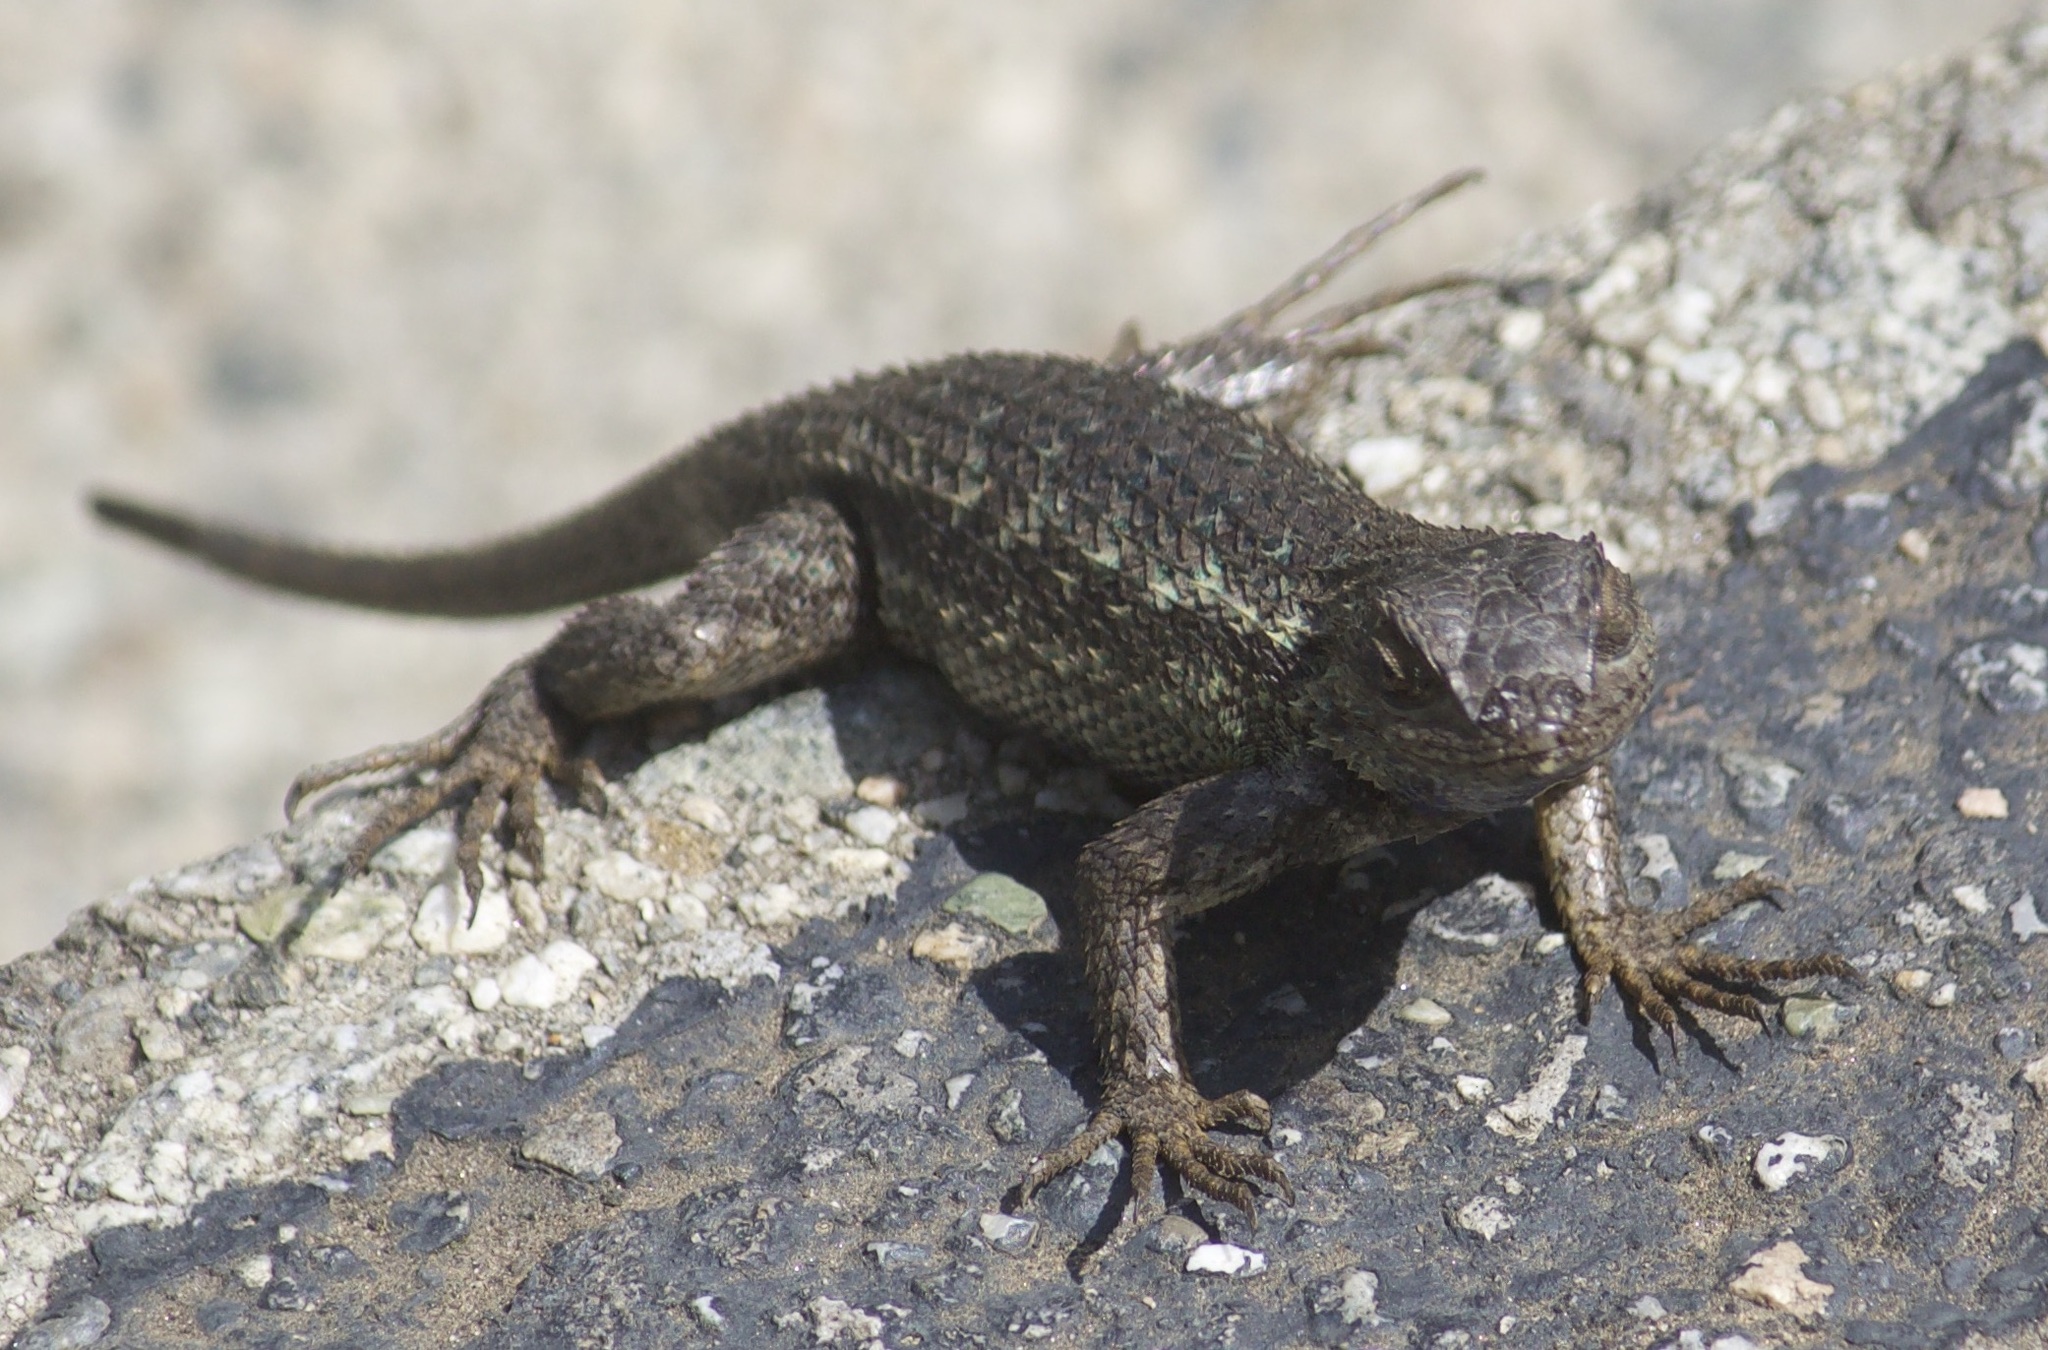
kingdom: Animalia
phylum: Chordata
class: Squamata
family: Phrynosomatidae
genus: Sceloporus
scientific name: Sceloporus occidentalis
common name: Western fence lizard
